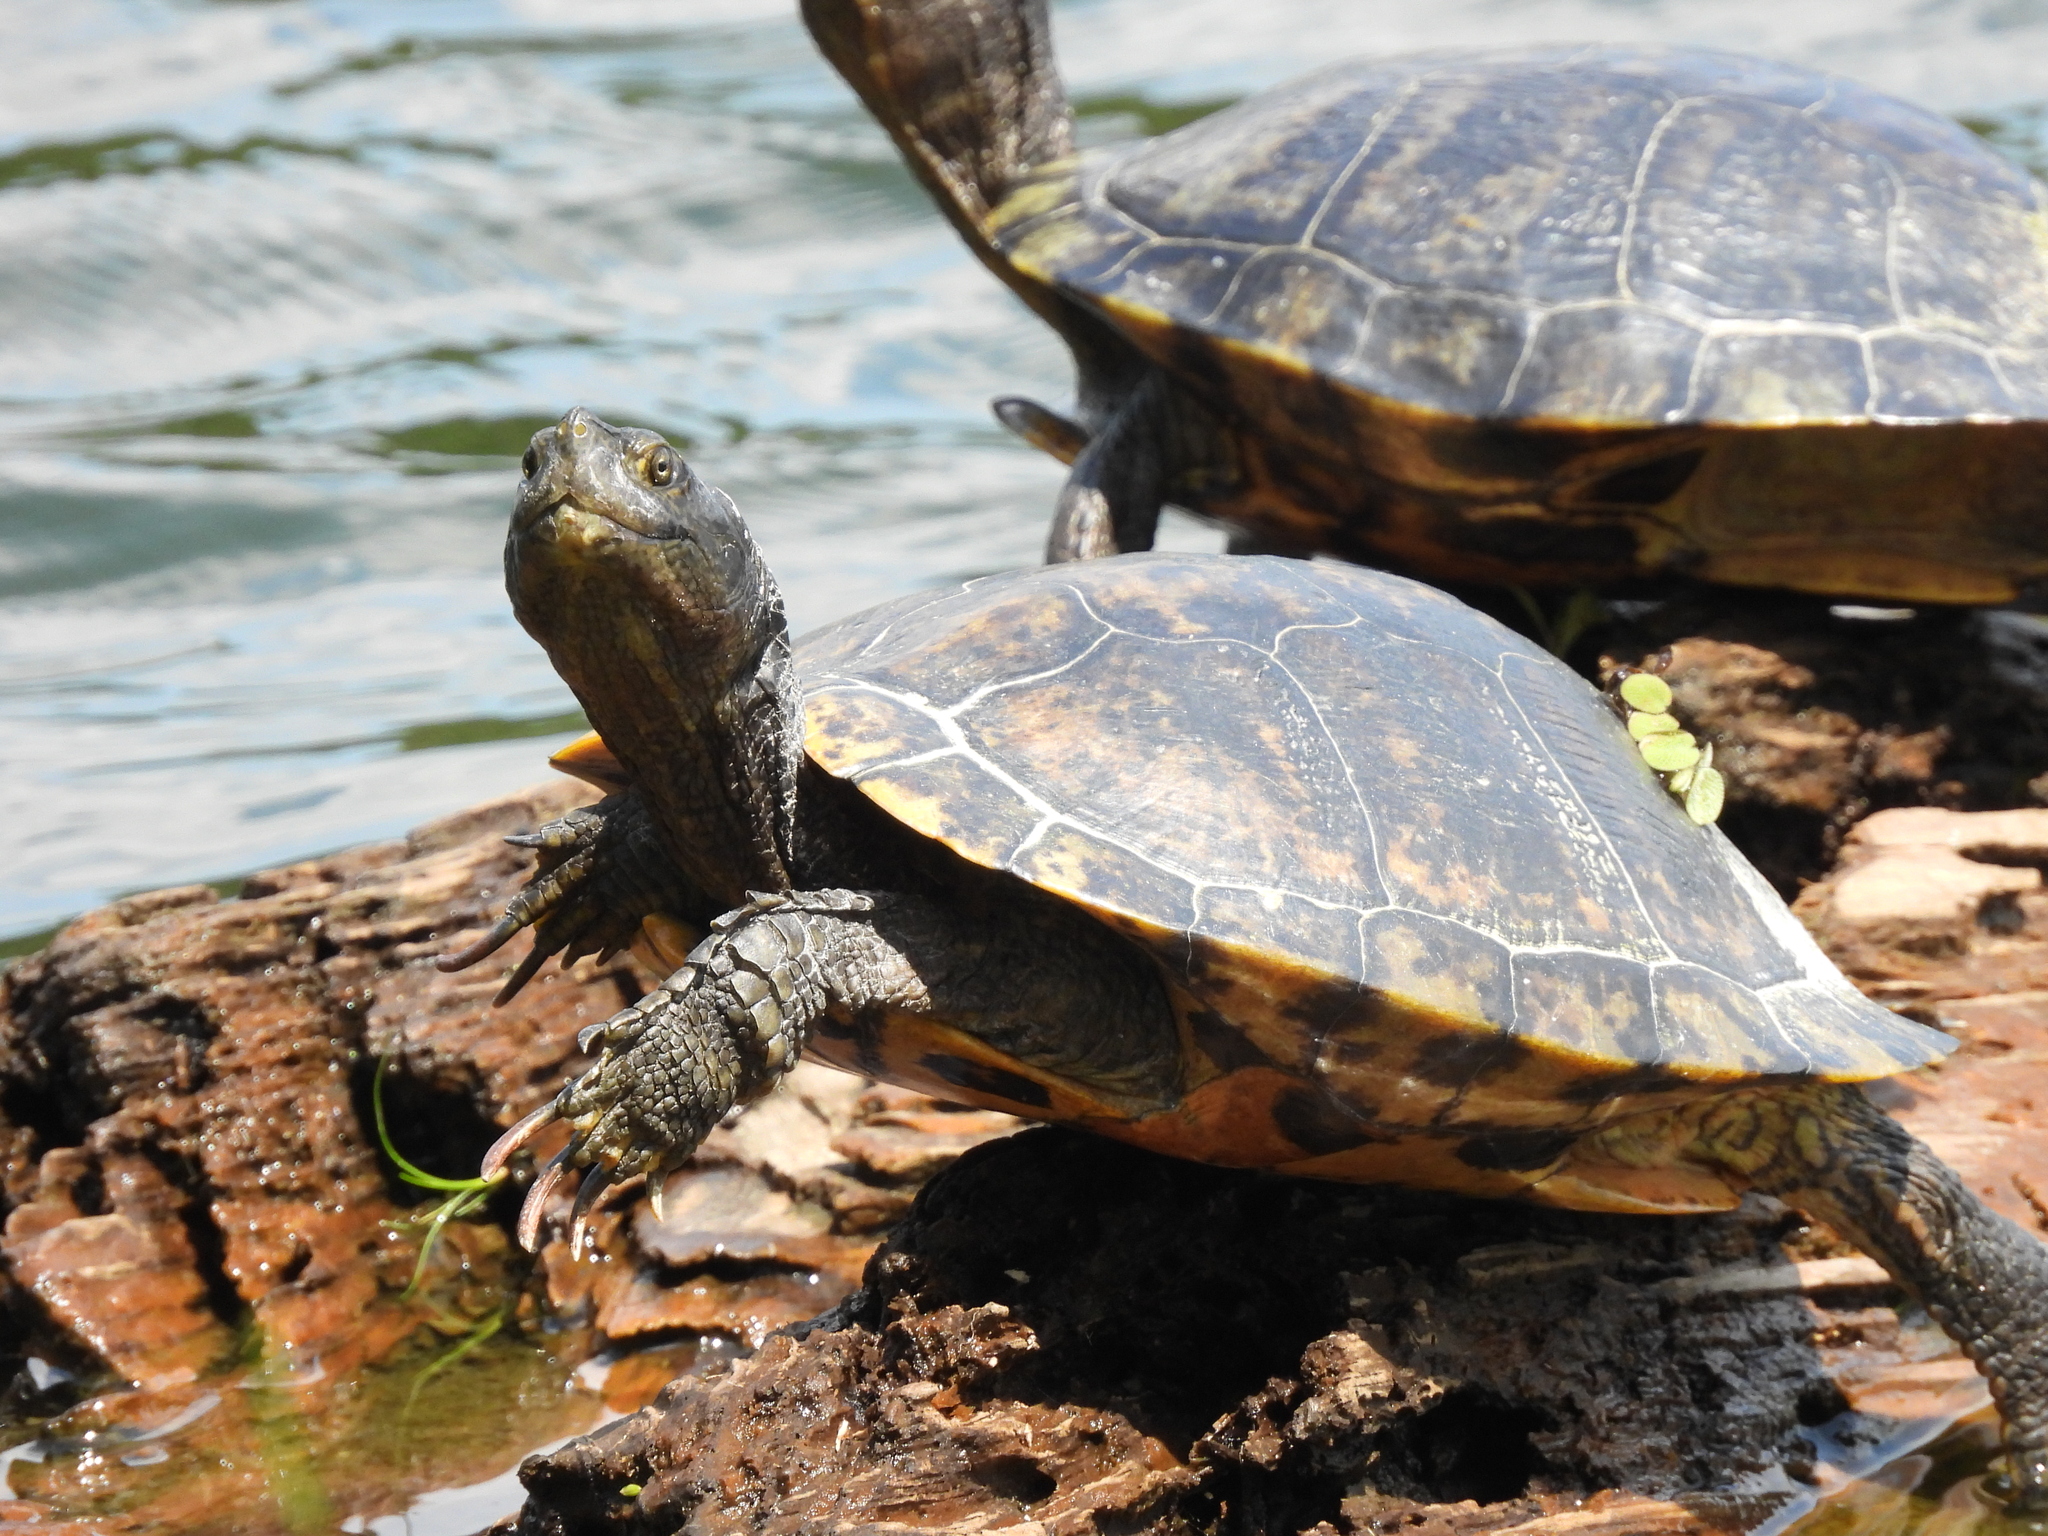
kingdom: Animalia
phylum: Chordata
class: Testudines
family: Emydidae
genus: Trachemys
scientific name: Trachemys scripta
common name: Slider
